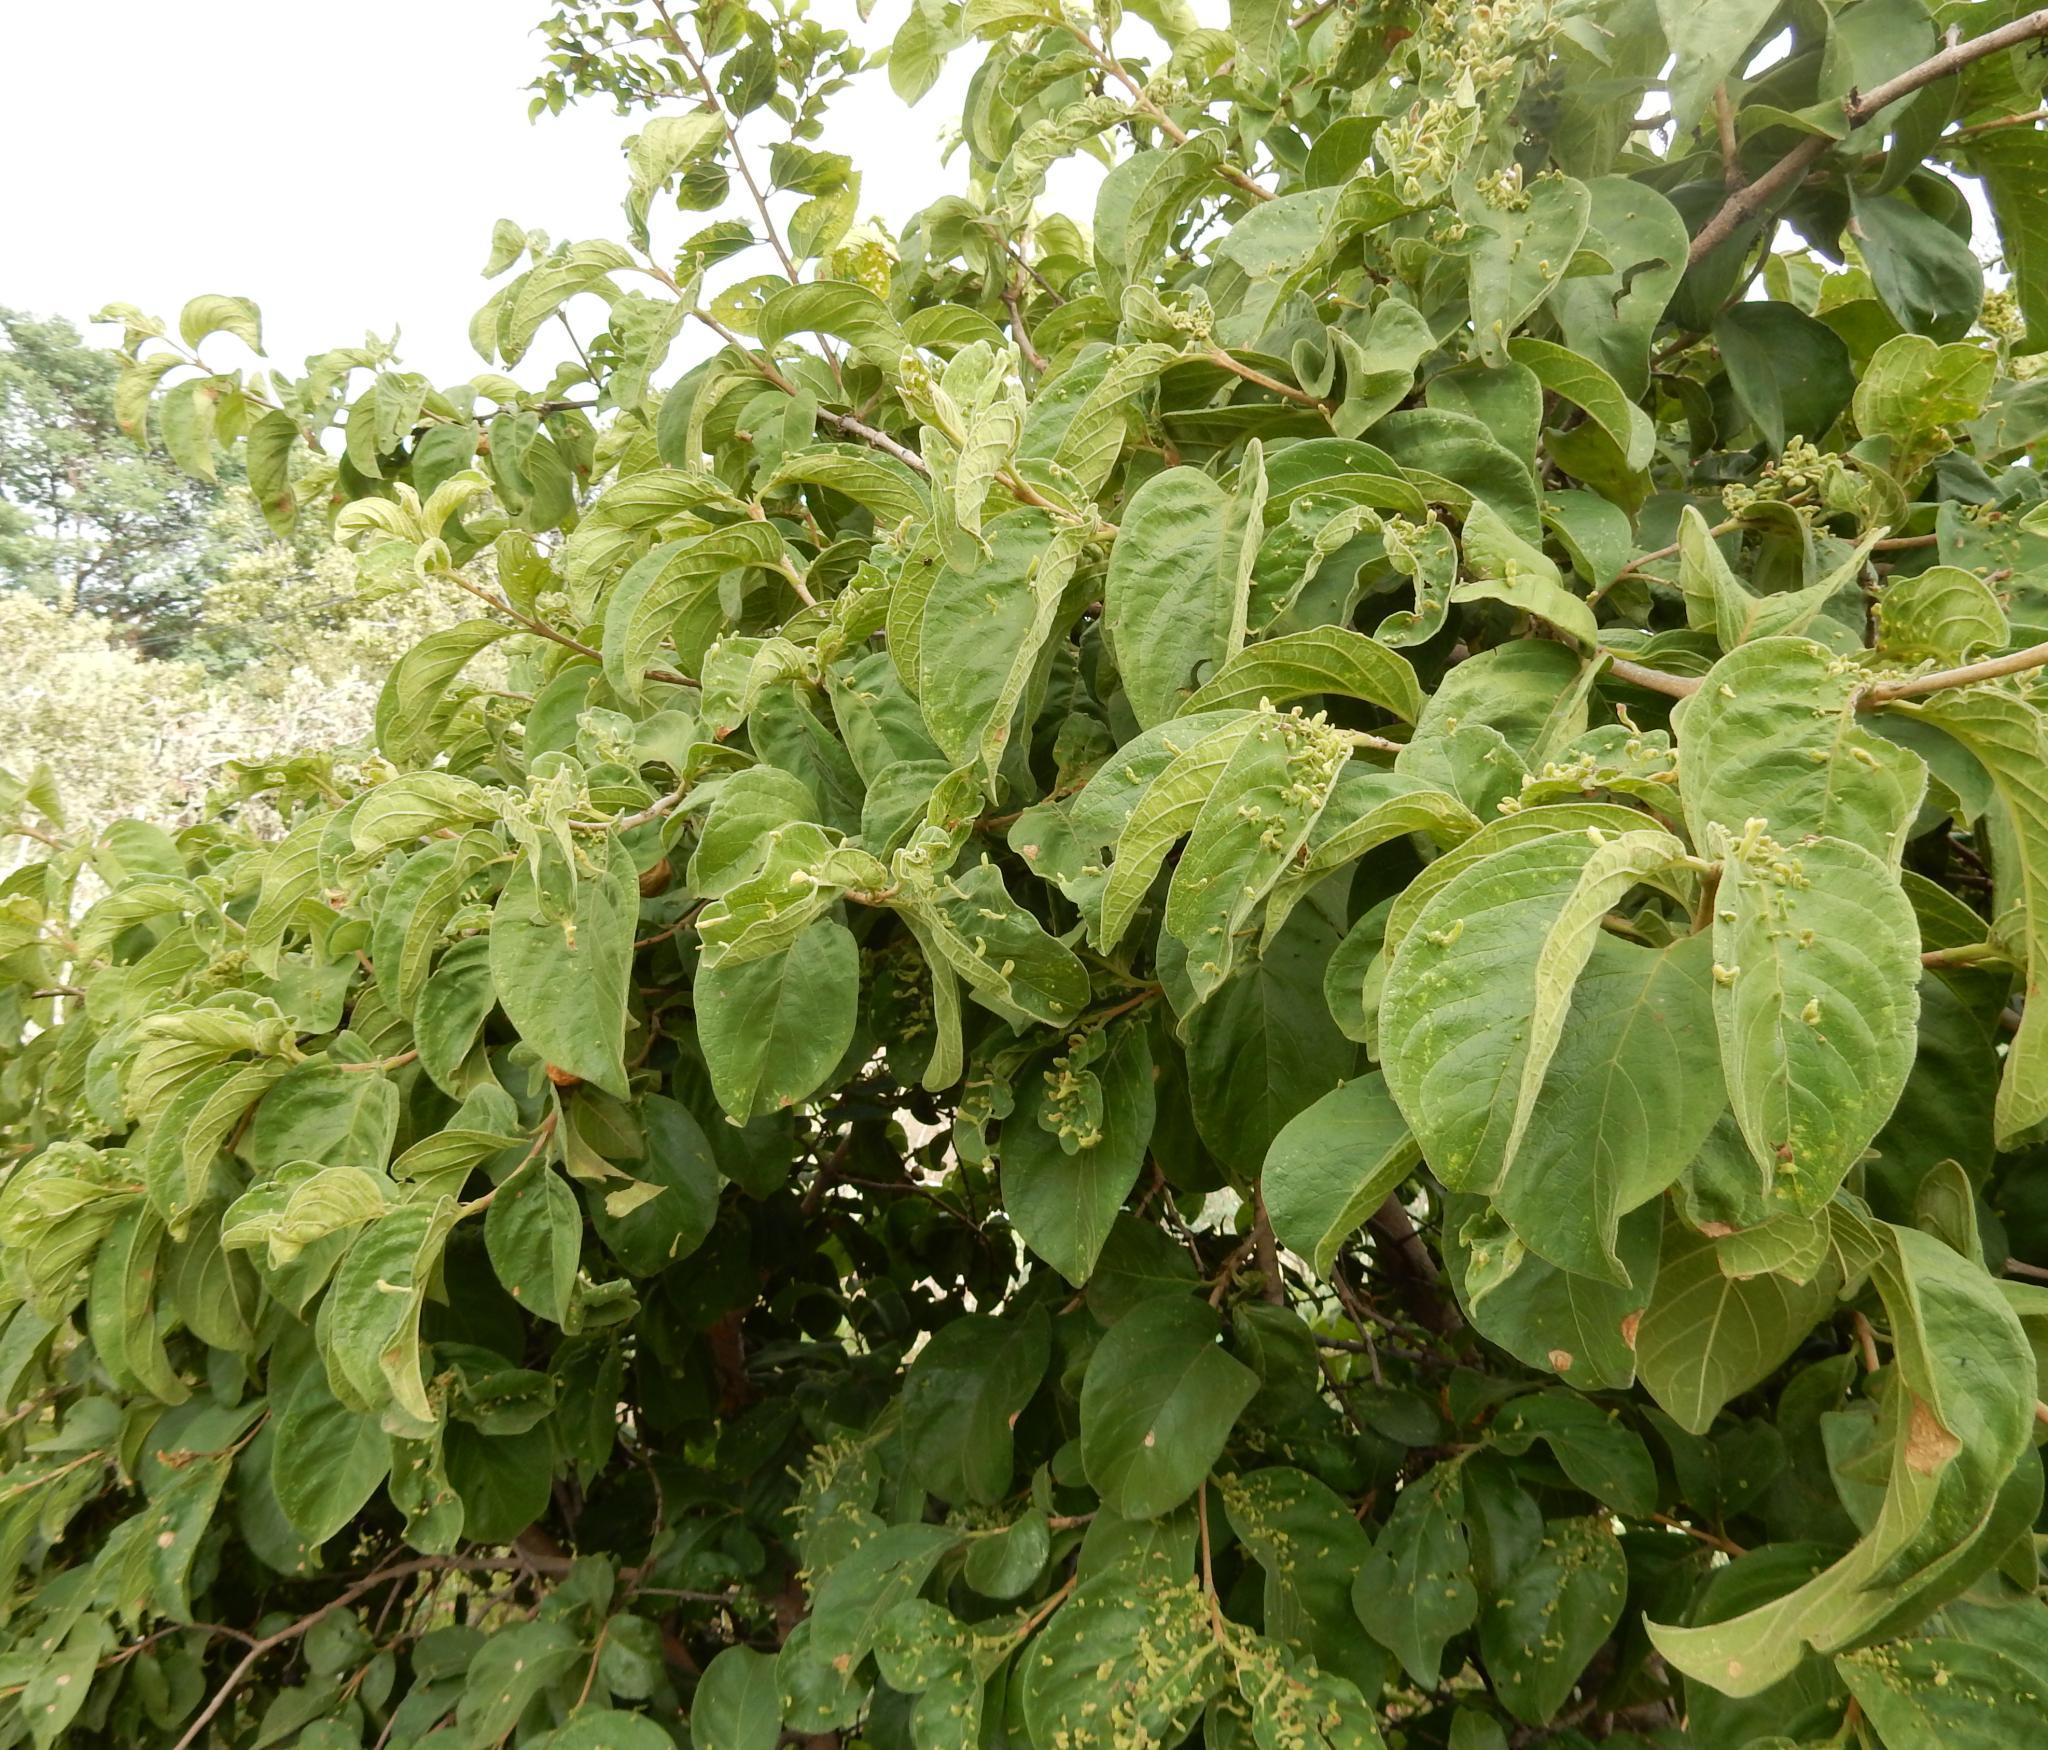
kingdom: Animalia
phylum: Arthropoda
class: Arachnida
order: Trombidiformes
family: Eriophyidae
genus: Acalitus
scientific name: Acalitus
